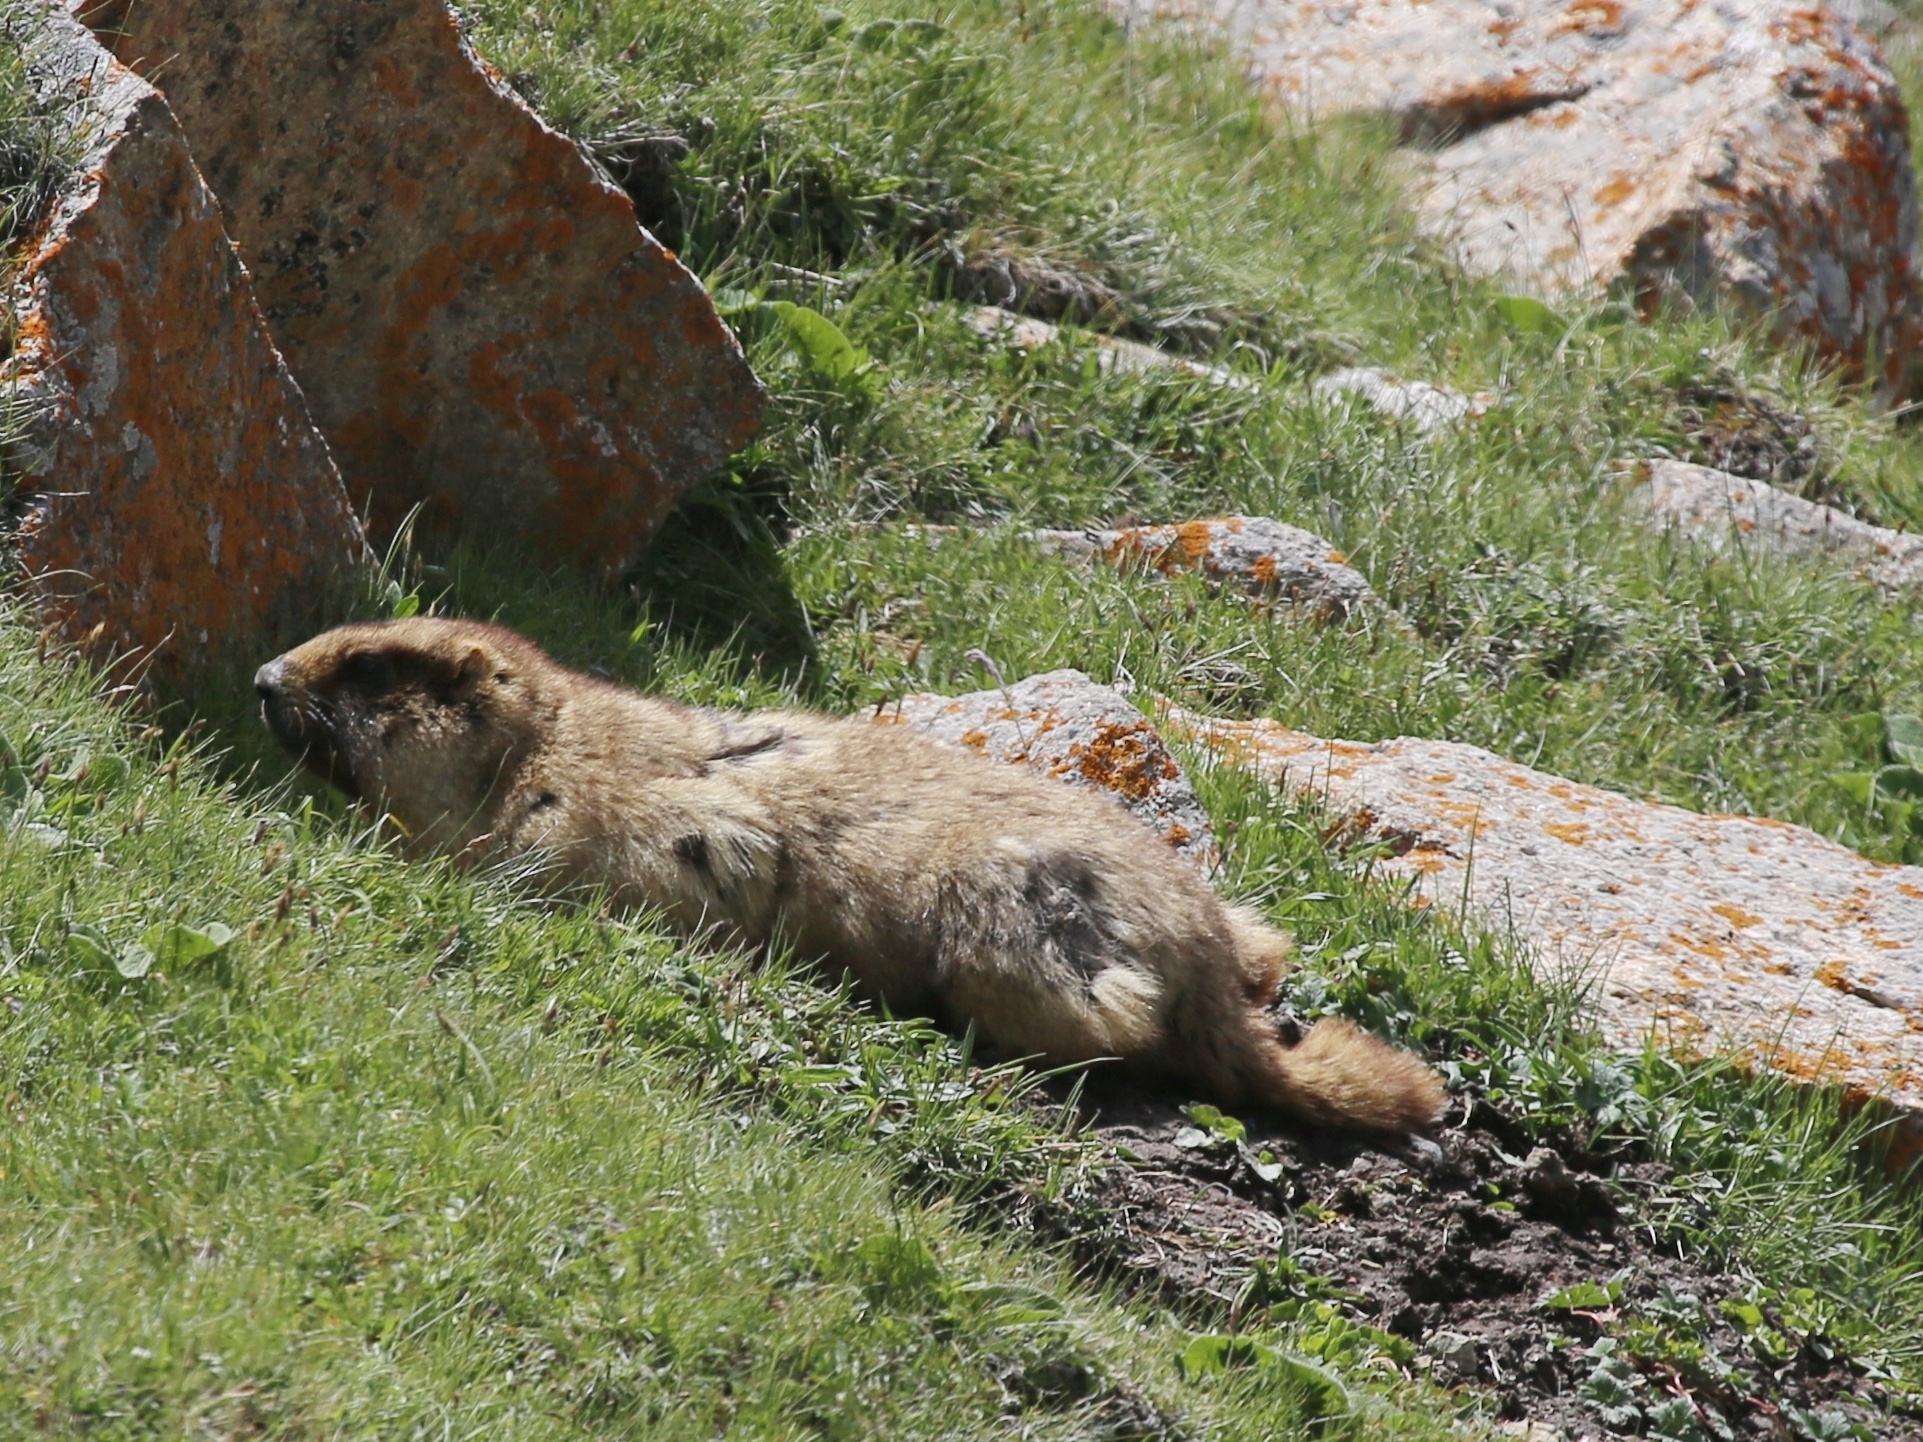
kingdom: Animalia
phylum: Chordata
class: Mammalia
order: Rodentia
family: Sciuridae
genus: Marmota
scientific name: Marmota baibacina
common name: Gray marmot
